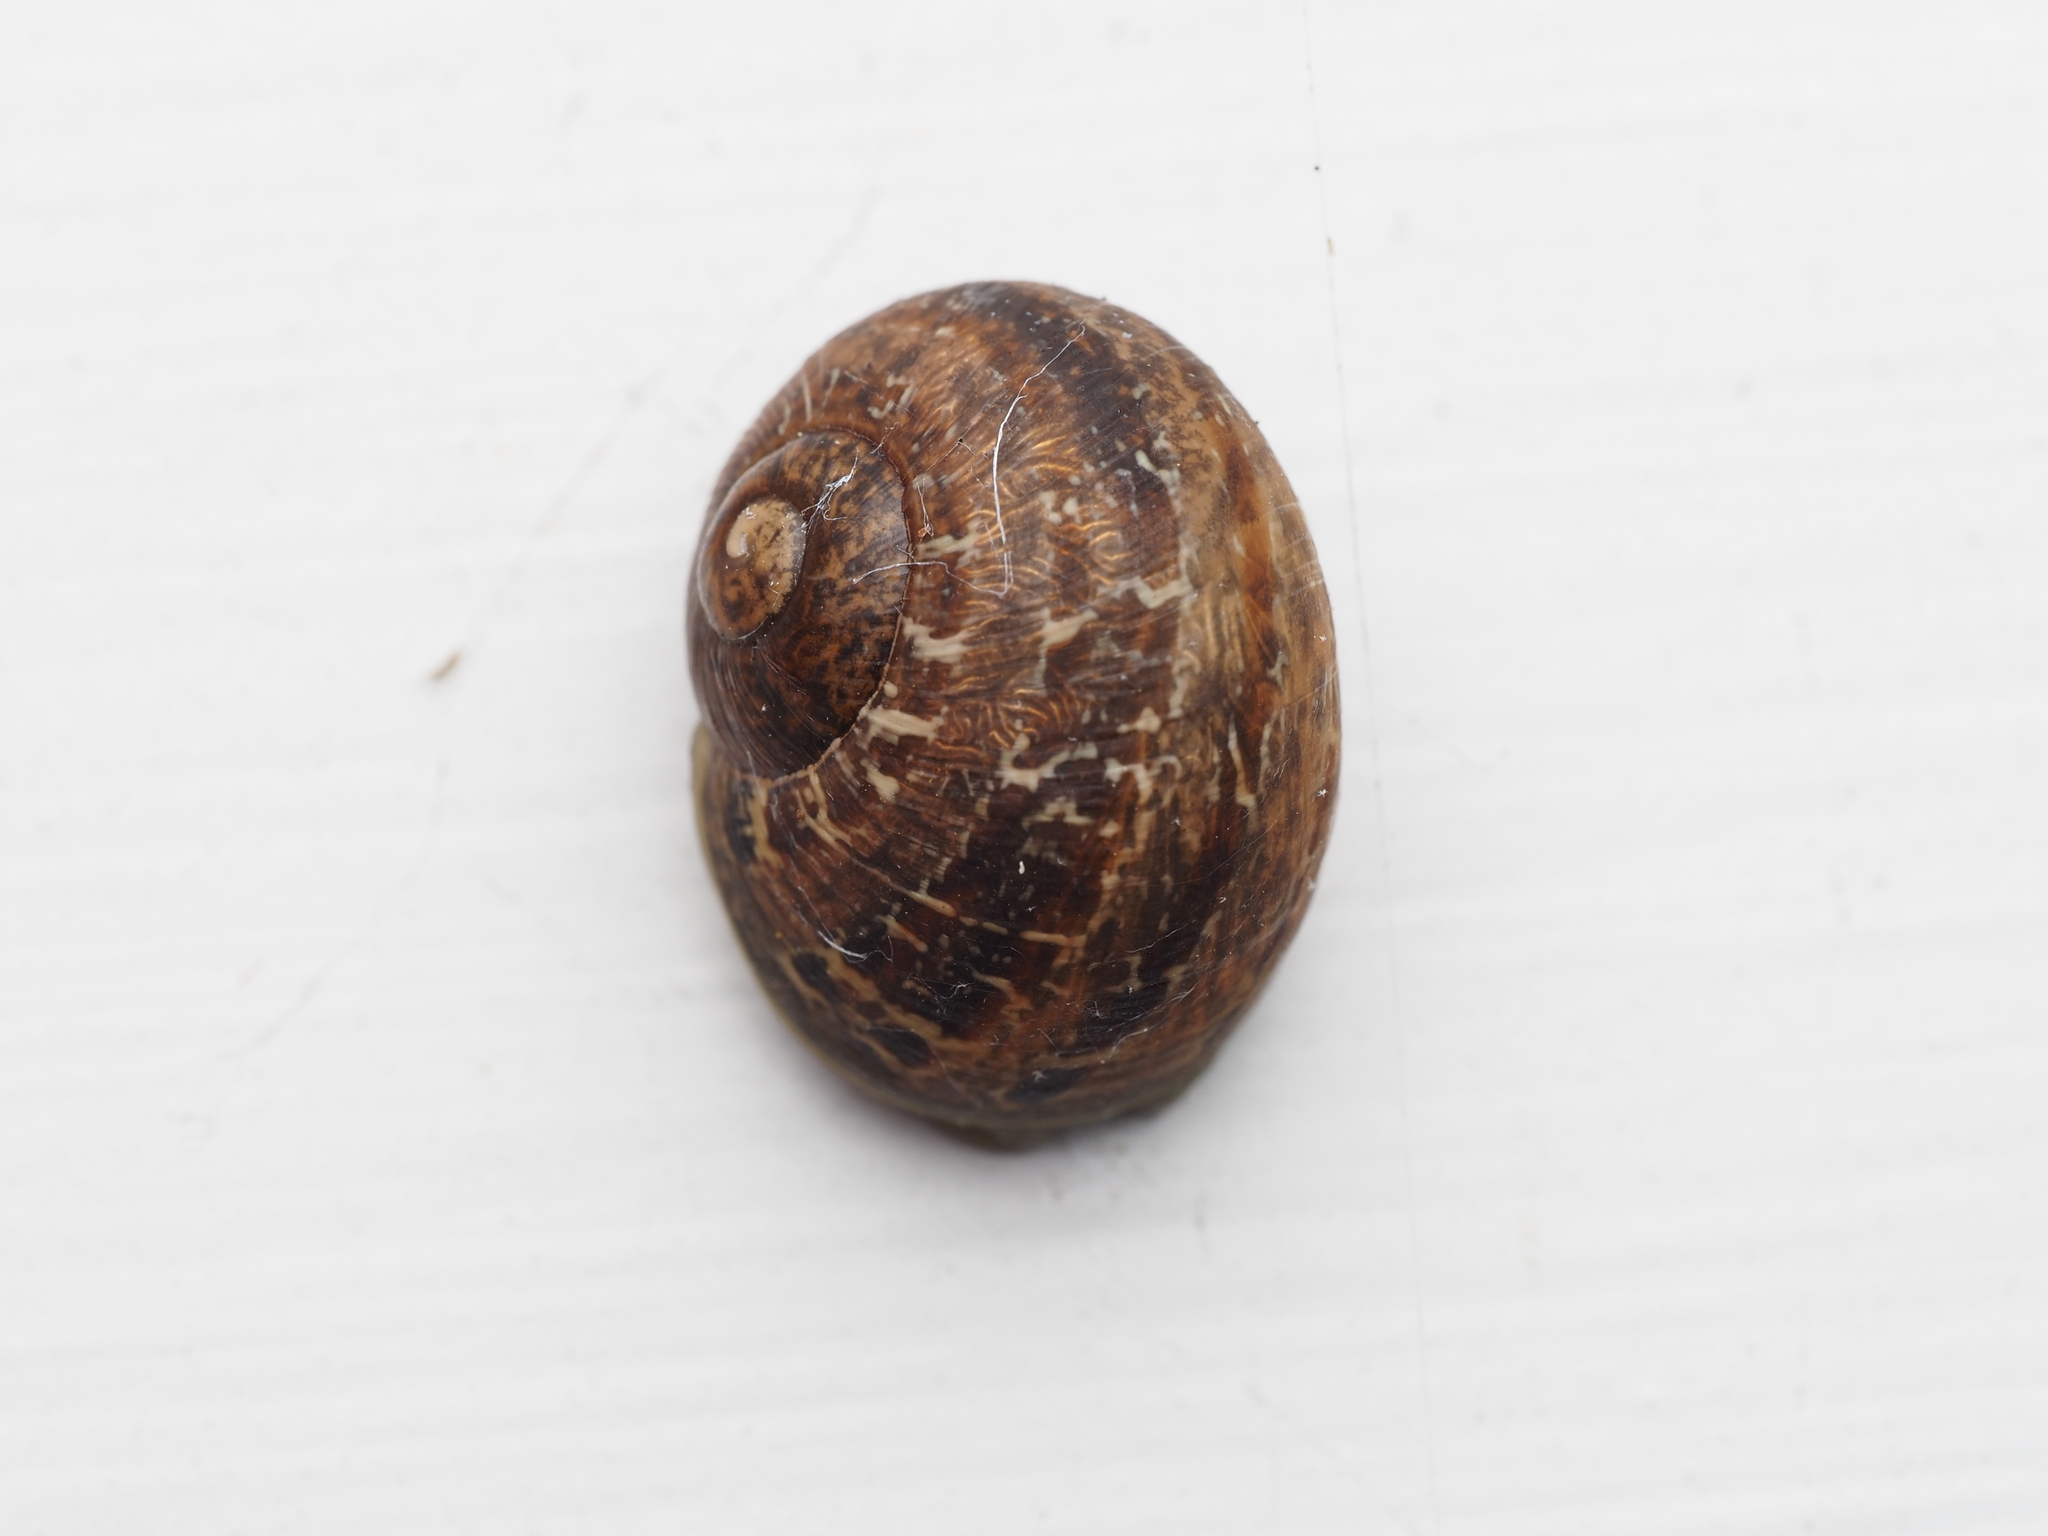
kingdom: Animalia
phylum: Mollusca
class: Gastropoda
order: Stylommatophora
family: Helicidae
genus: Cornu
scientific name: Cornu aspersum
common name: Brown garden snail
